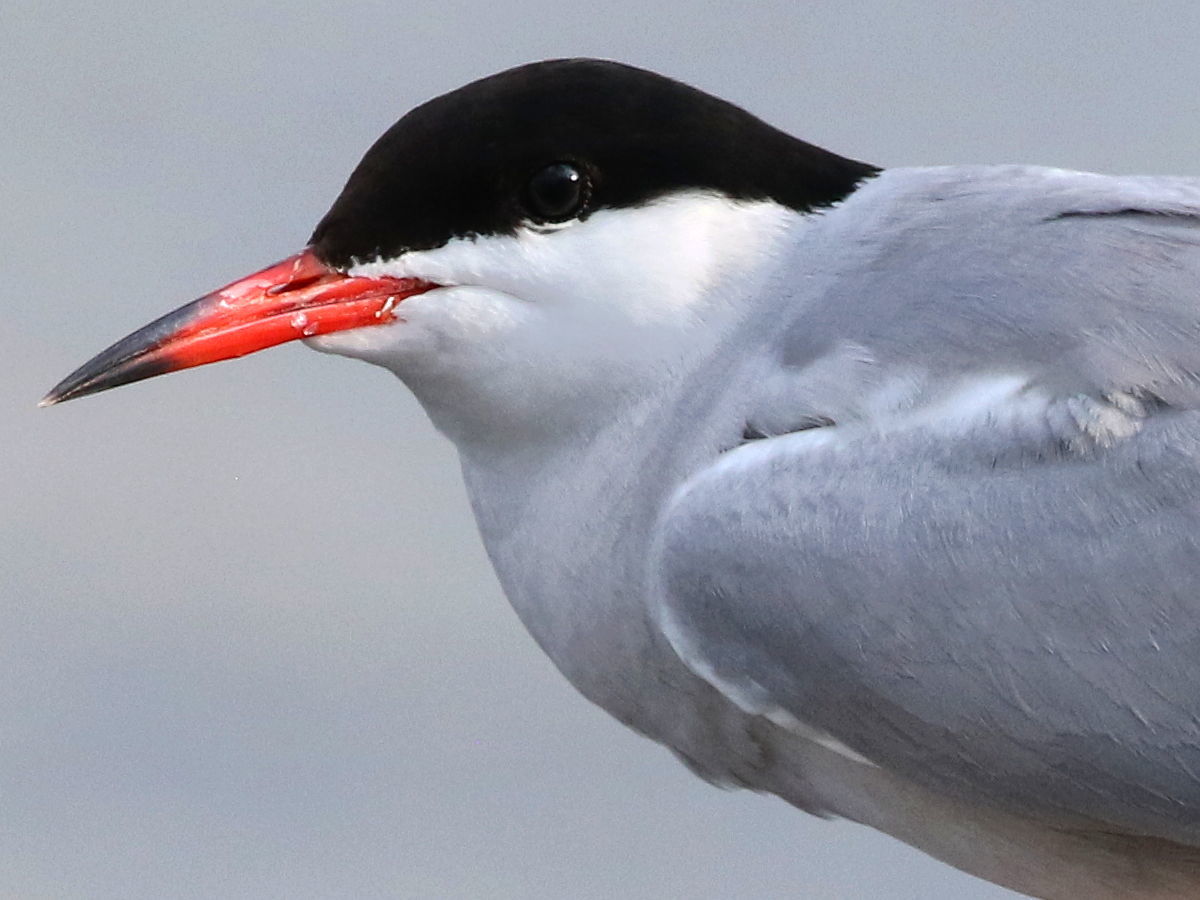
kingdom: Animalia
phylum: Chordata
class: Aves
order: Charadriiformes
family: Laridae
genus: Sterna
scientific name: Sterna hirundo
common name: Common tern
